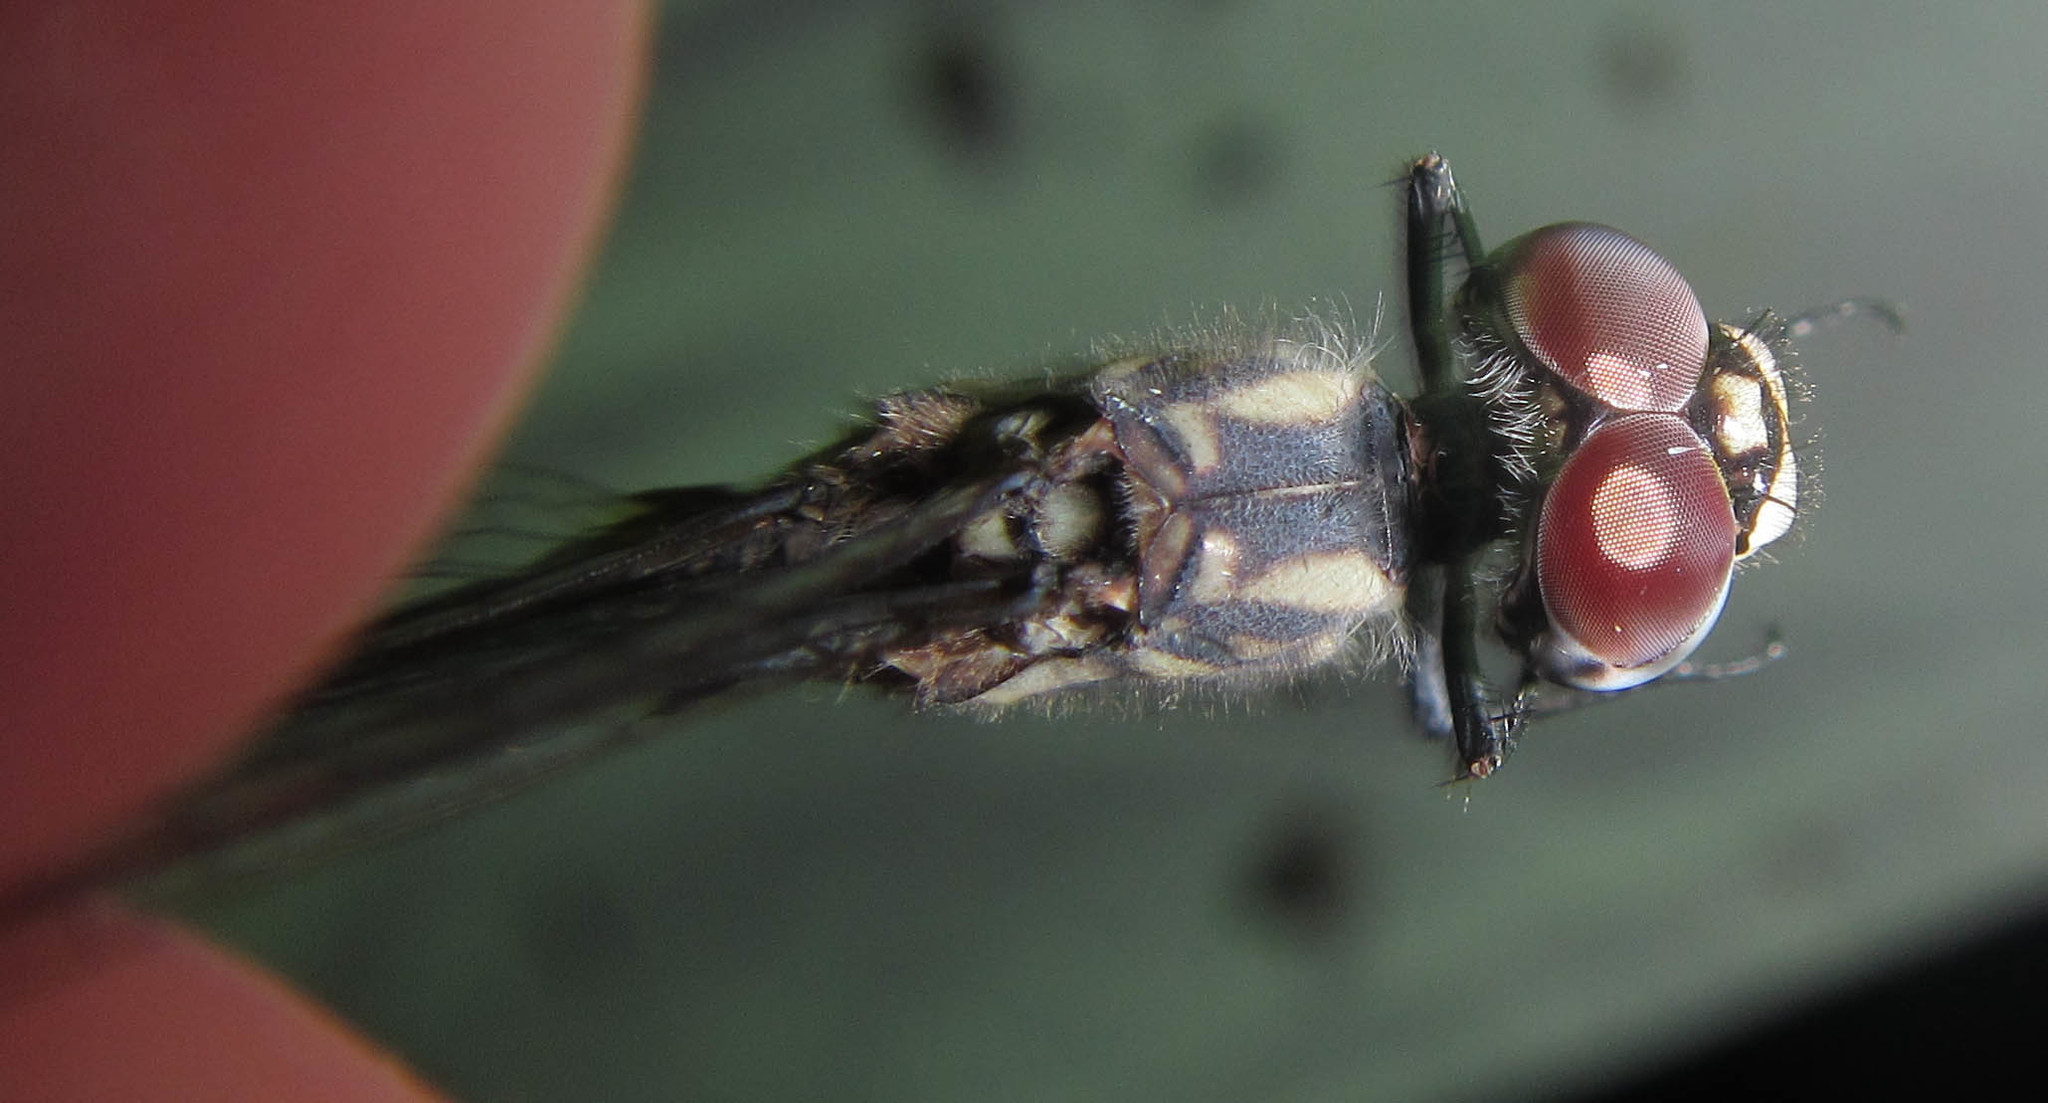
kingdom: Animalia
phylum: Arthropoda
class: Insecta
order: Odonata
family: Libellulidae
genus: Trithemis
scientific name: Trithemis hecate
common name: Silhouette dropwing
